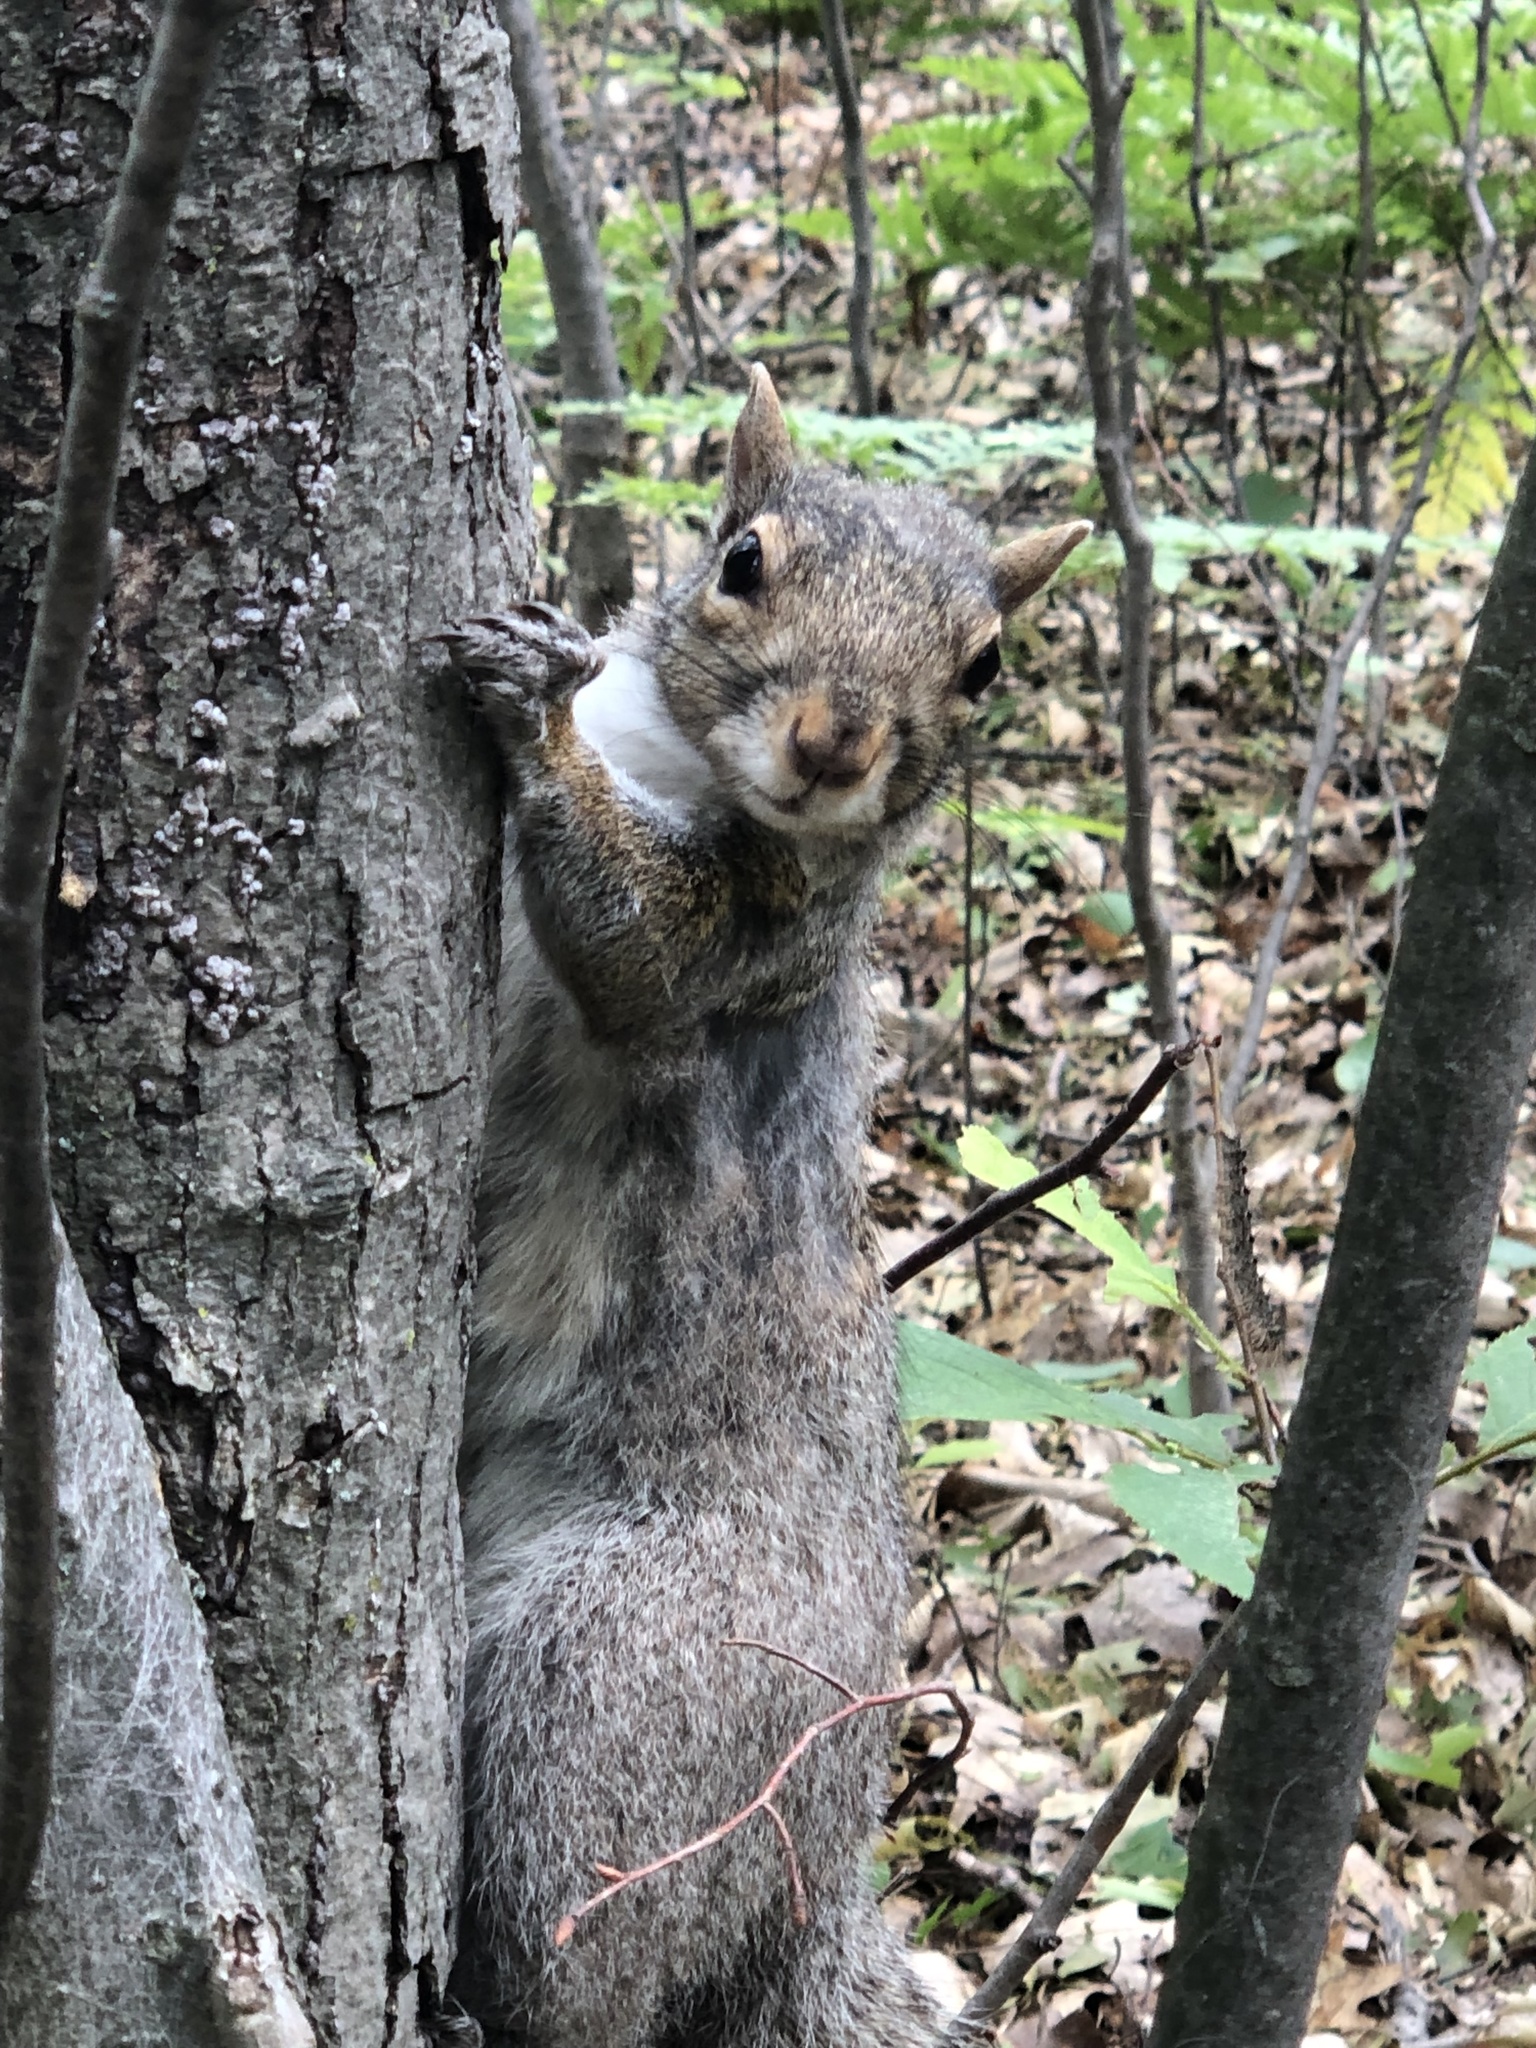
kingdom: Animalia
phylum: Chordata
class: Mammalia
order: Rodentia
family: Sciuridae
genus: Sciurus
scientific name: Sciurus carolinensis
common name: Eastern gray squirrel
